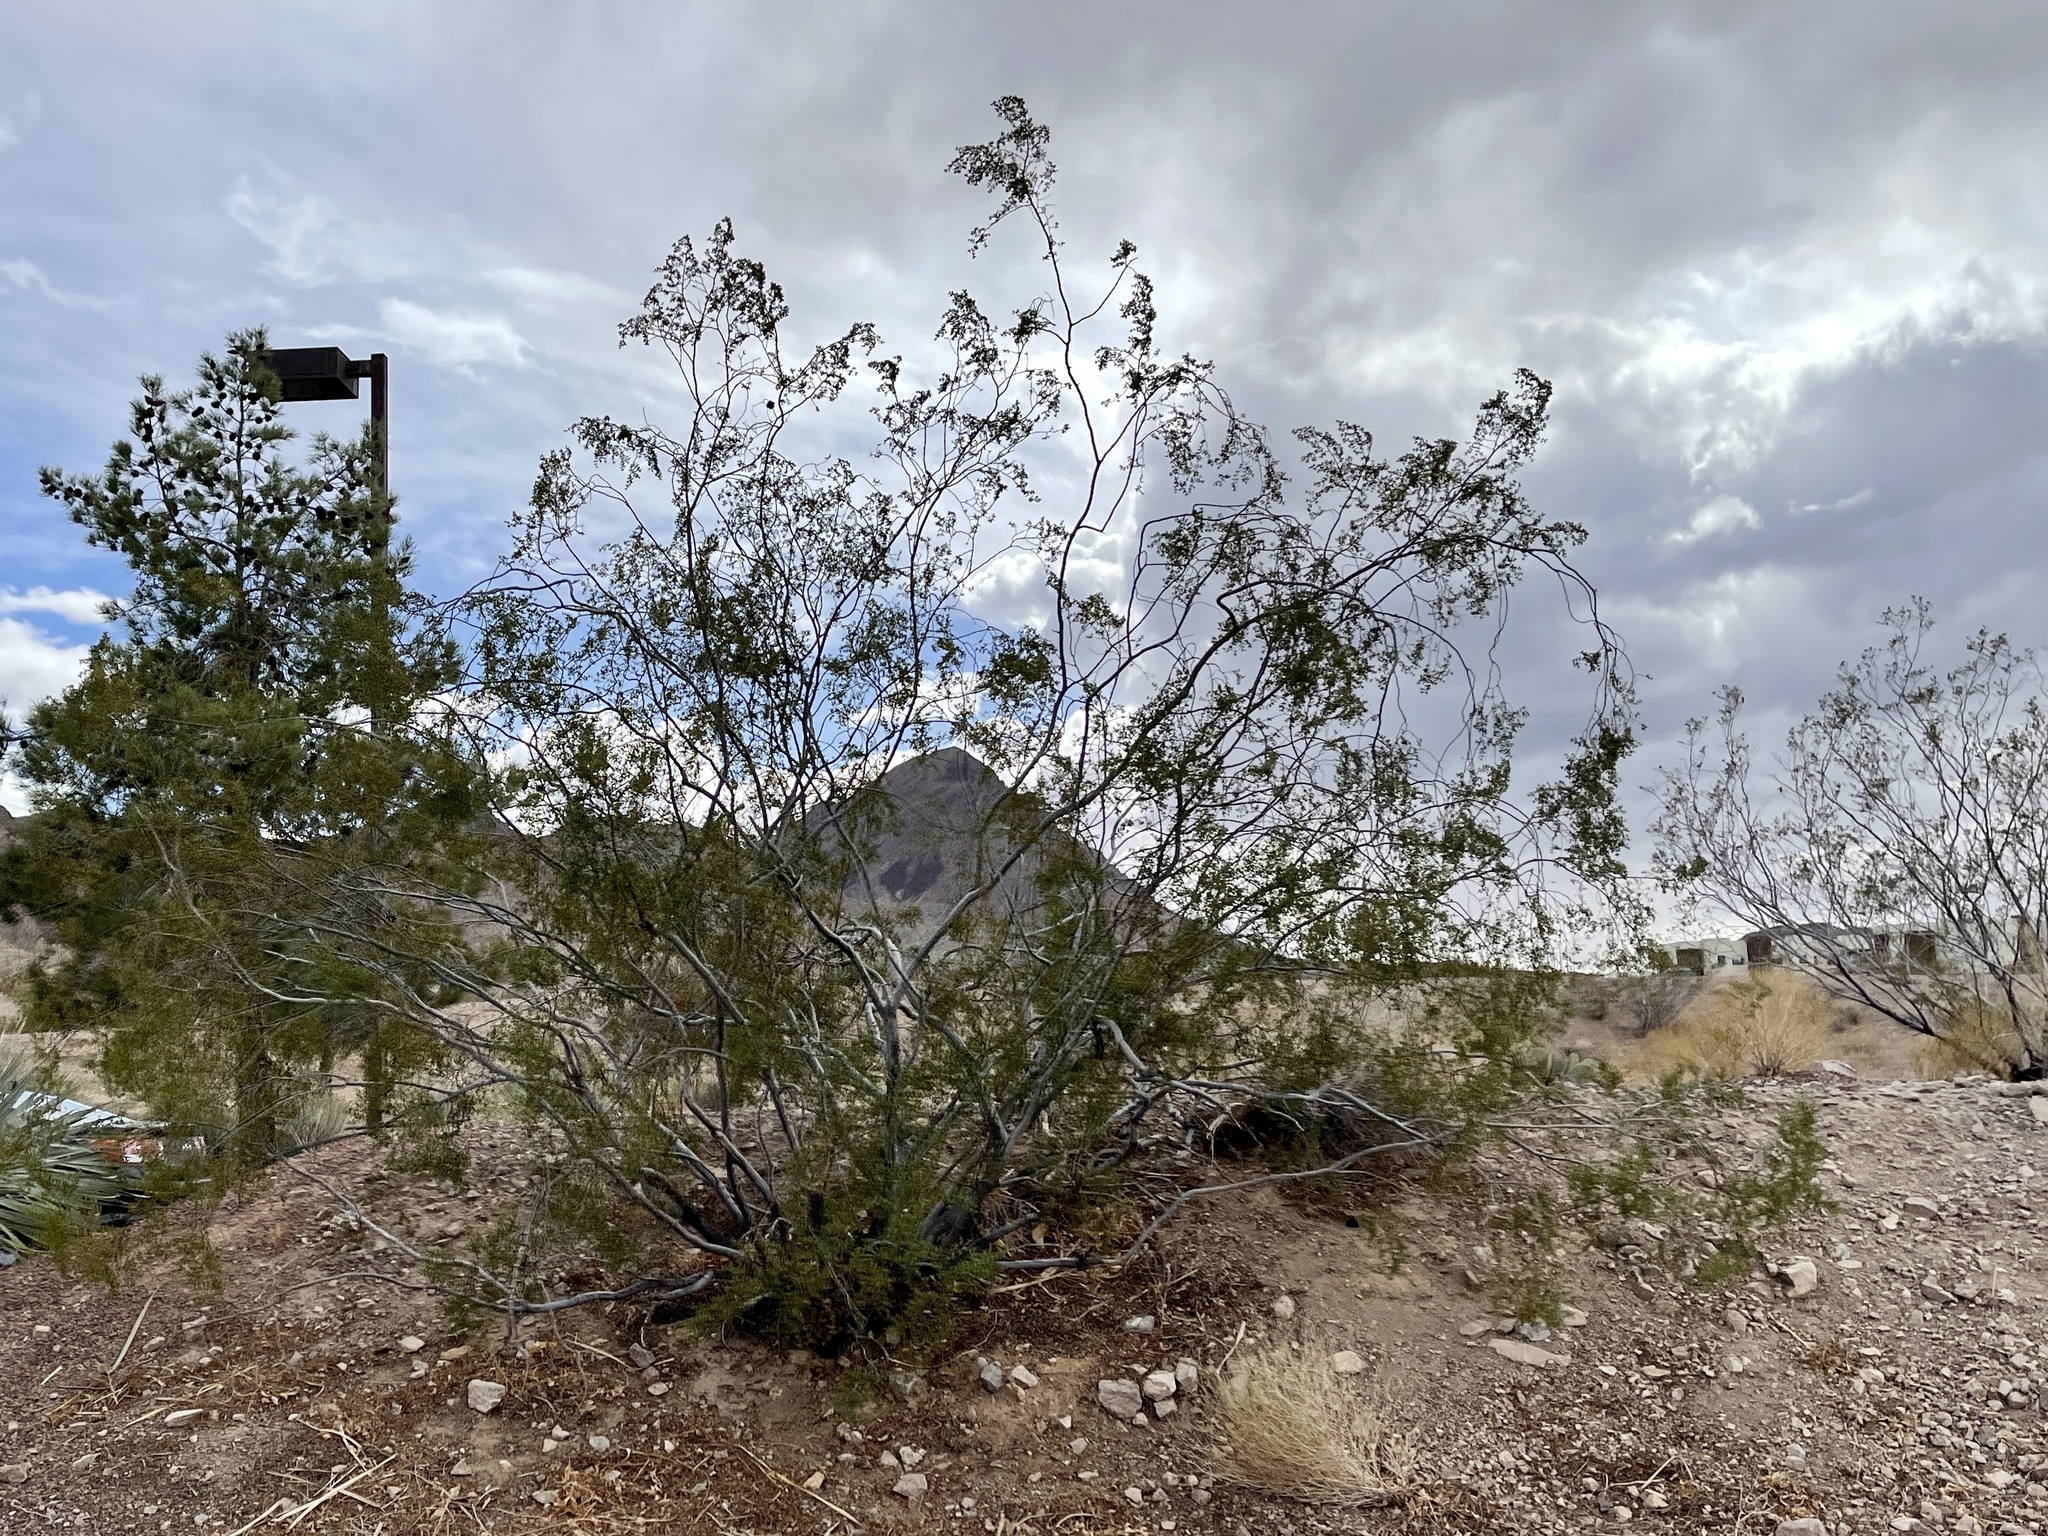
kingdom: Plantae
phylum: Tracheophyta
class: Magnoliopsida
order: Zygophyllales
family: Zygophyllaceae
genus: Larrea
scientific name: Larrea tridentata
